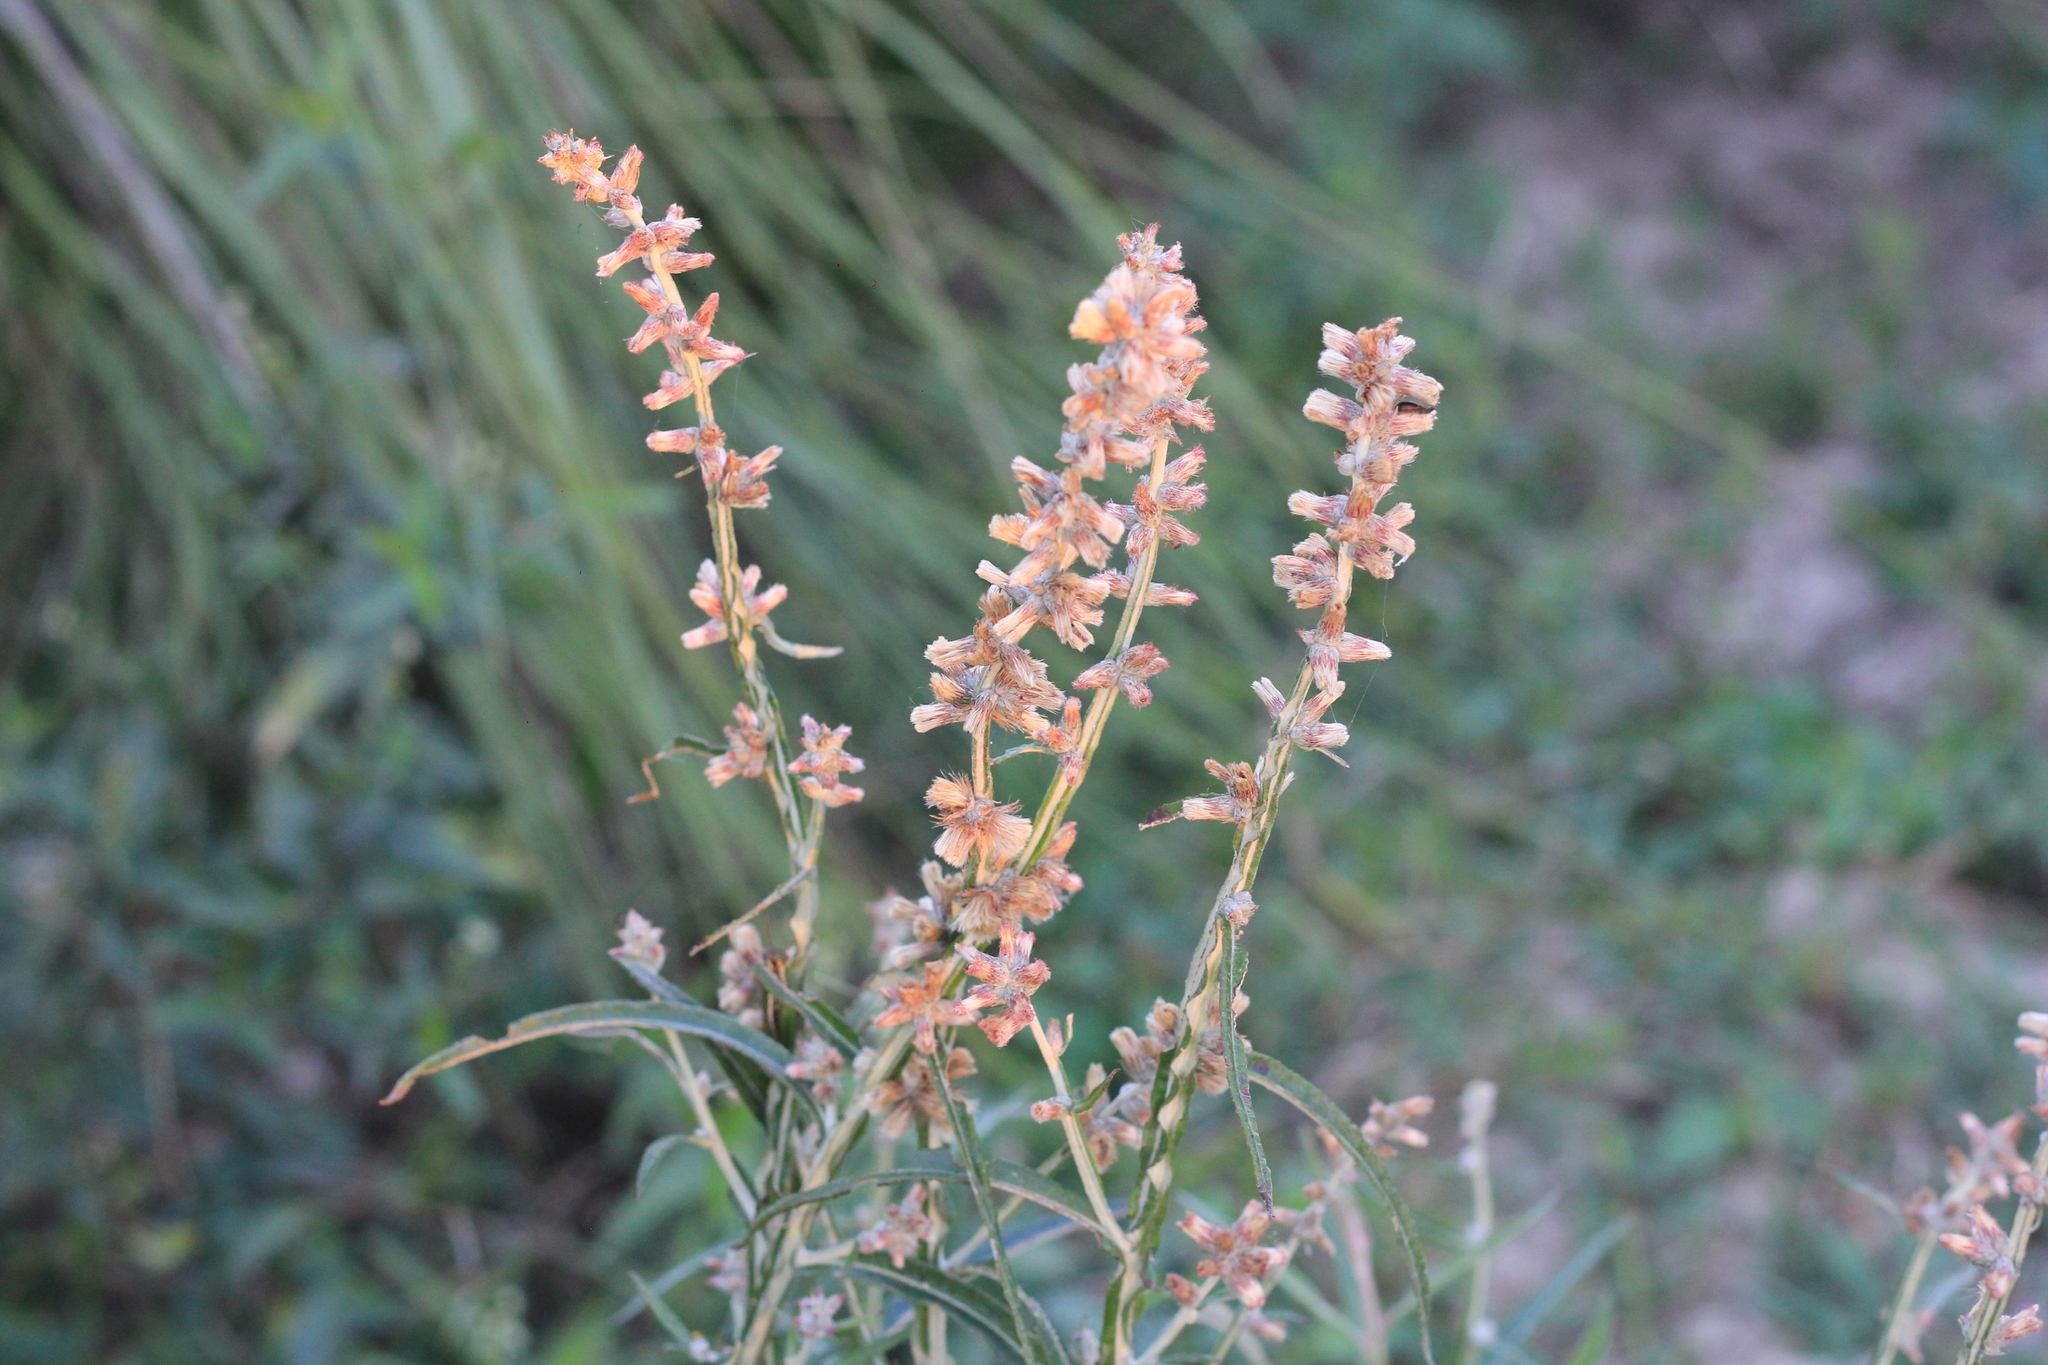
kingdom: Plantae
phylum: Tracheophyta
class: Magnoliopsida
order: Asterales
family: Asteraceae
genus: Pterocaulon
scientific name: Pterocaulon virgatum
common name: Wand blackroot
